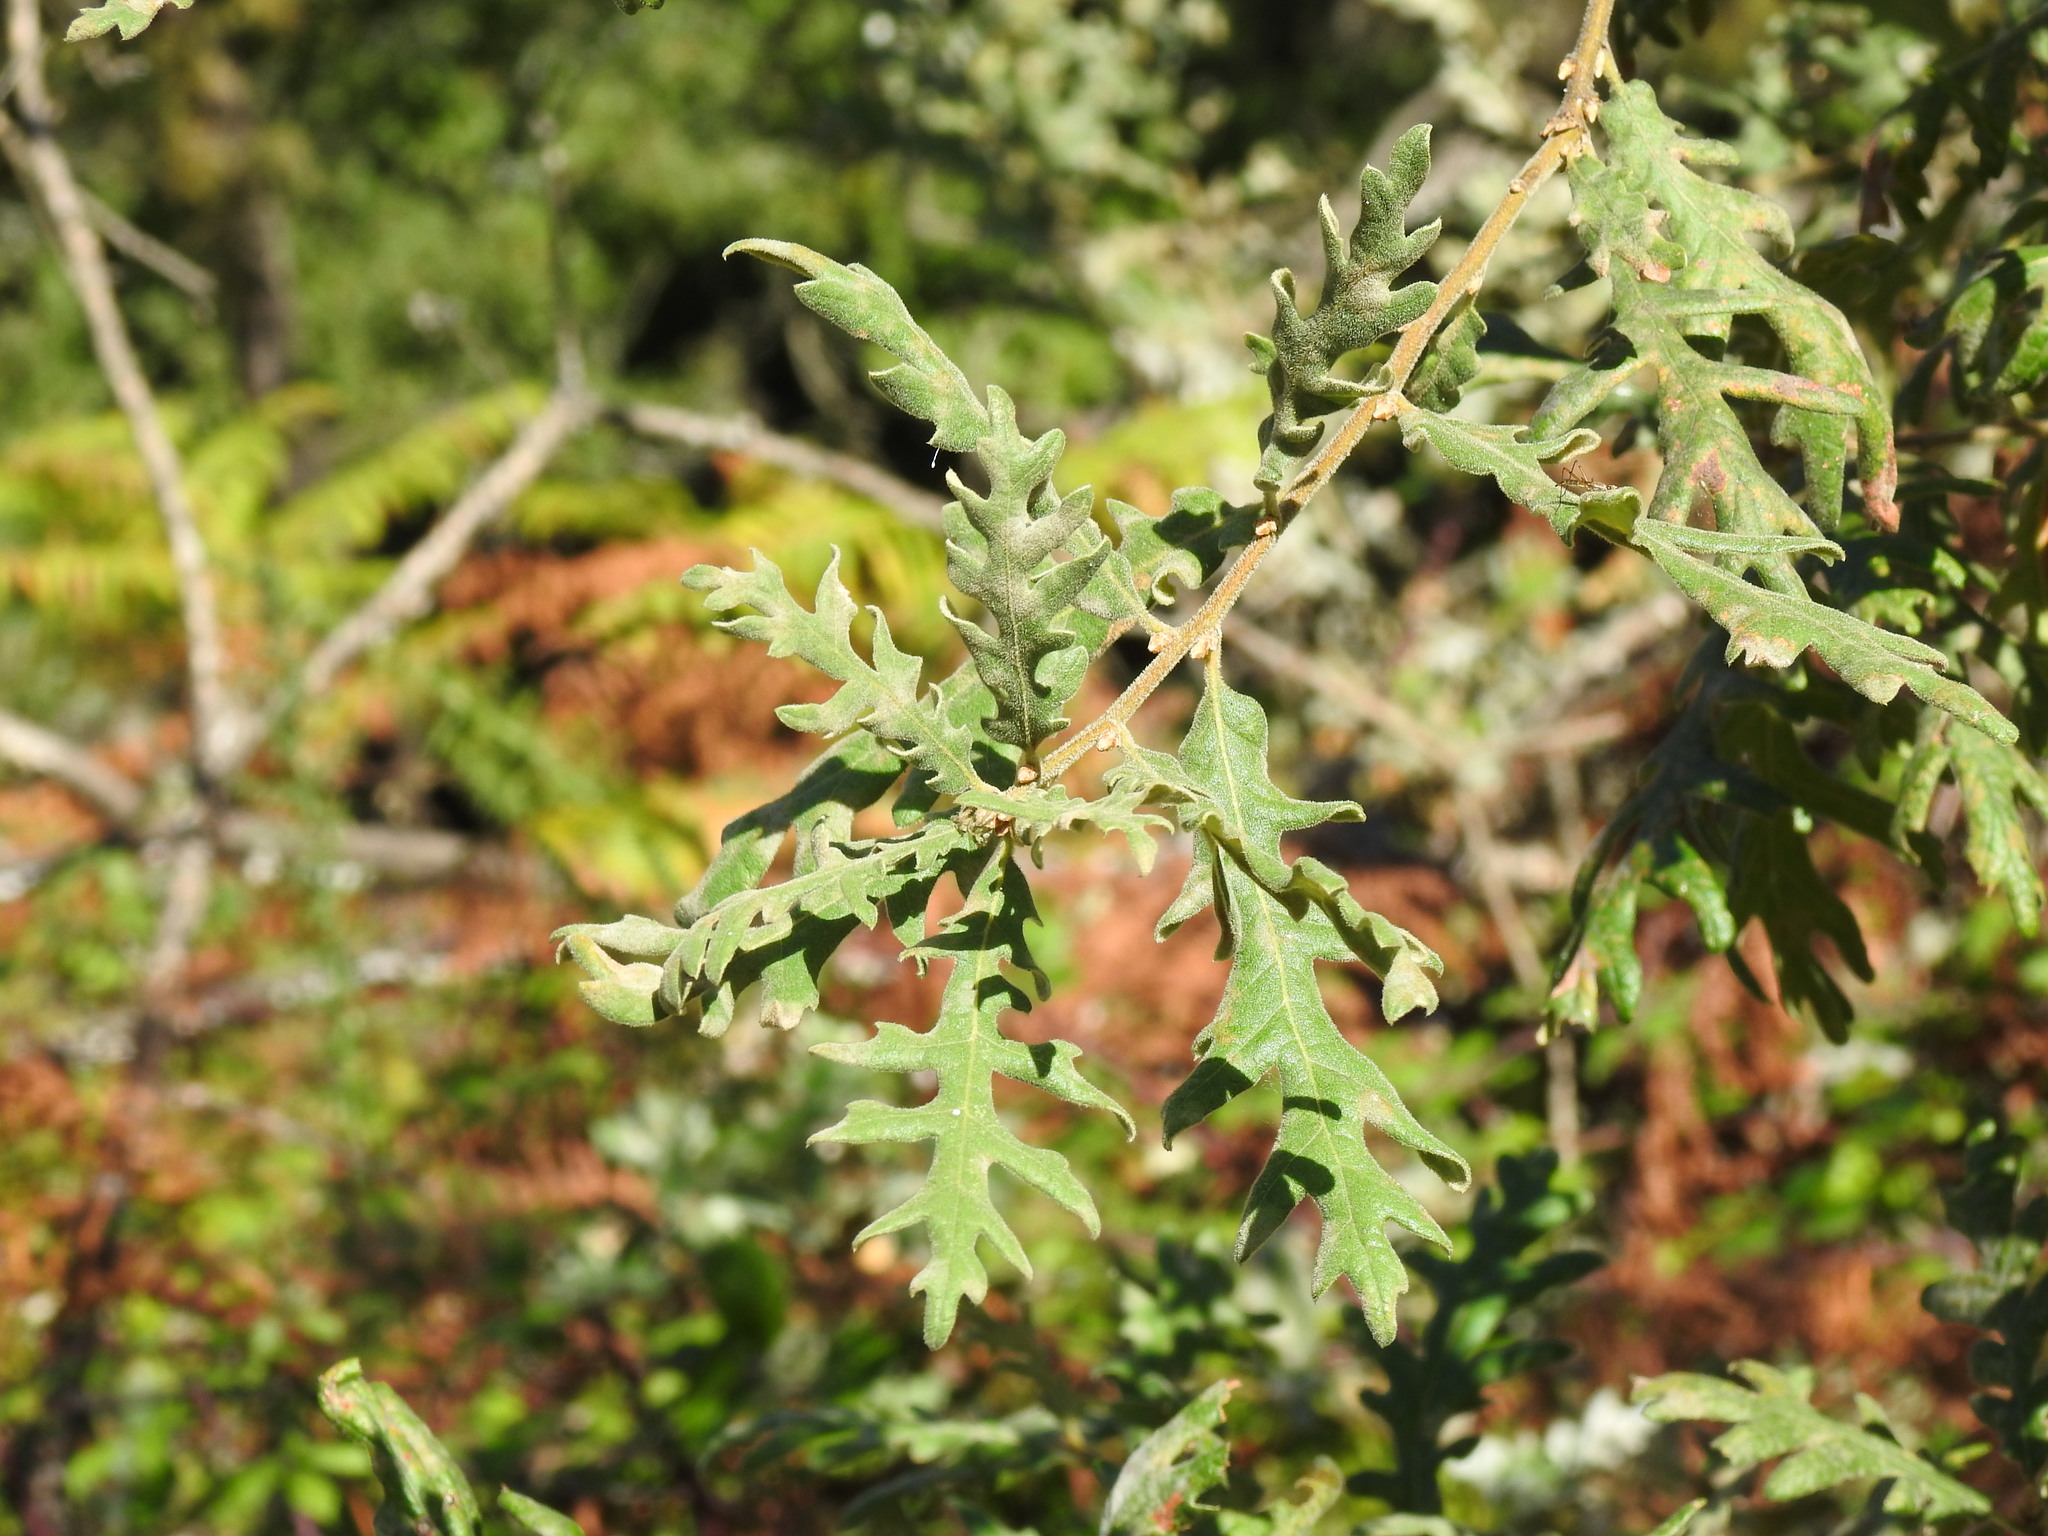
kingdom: Plantae
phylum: Tracheophyta
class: Magnoliopsida
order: Fagales
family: Fagaceae
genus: Quercus
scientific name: Quercus pyrenaica
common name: Pyrenean oak
